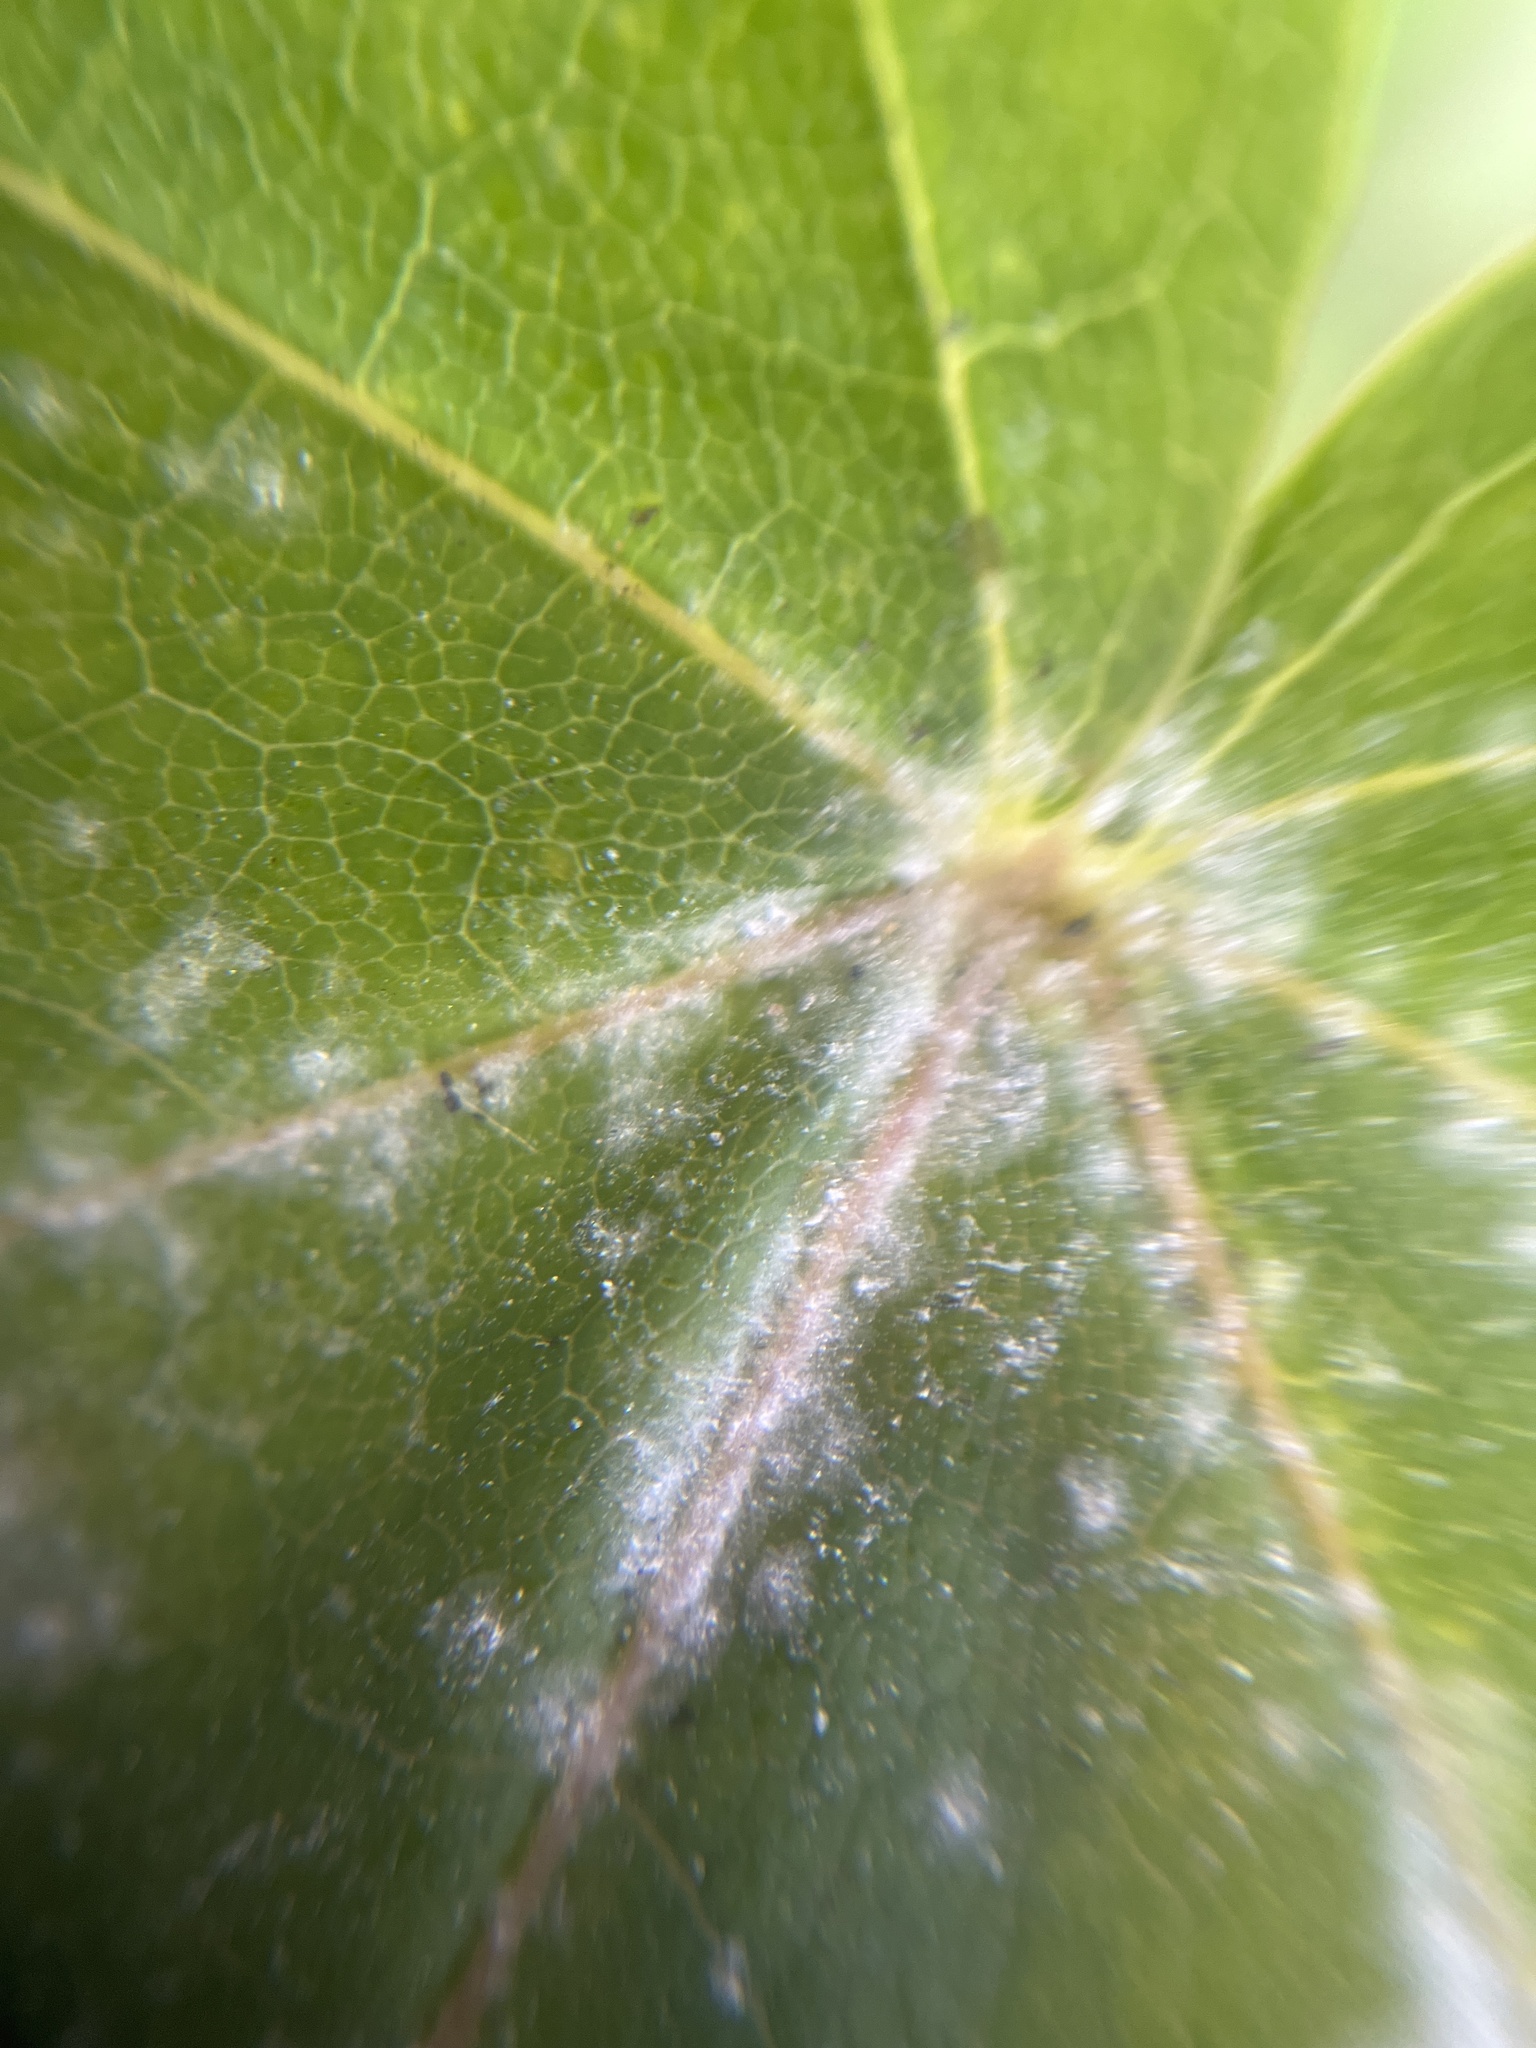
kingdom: Fungi
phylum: Ascomycota
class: Leotiomycetes
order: Helotiales
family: Erysiphaceae
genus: Sawadaea
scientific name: Sawadaea tulasnei
